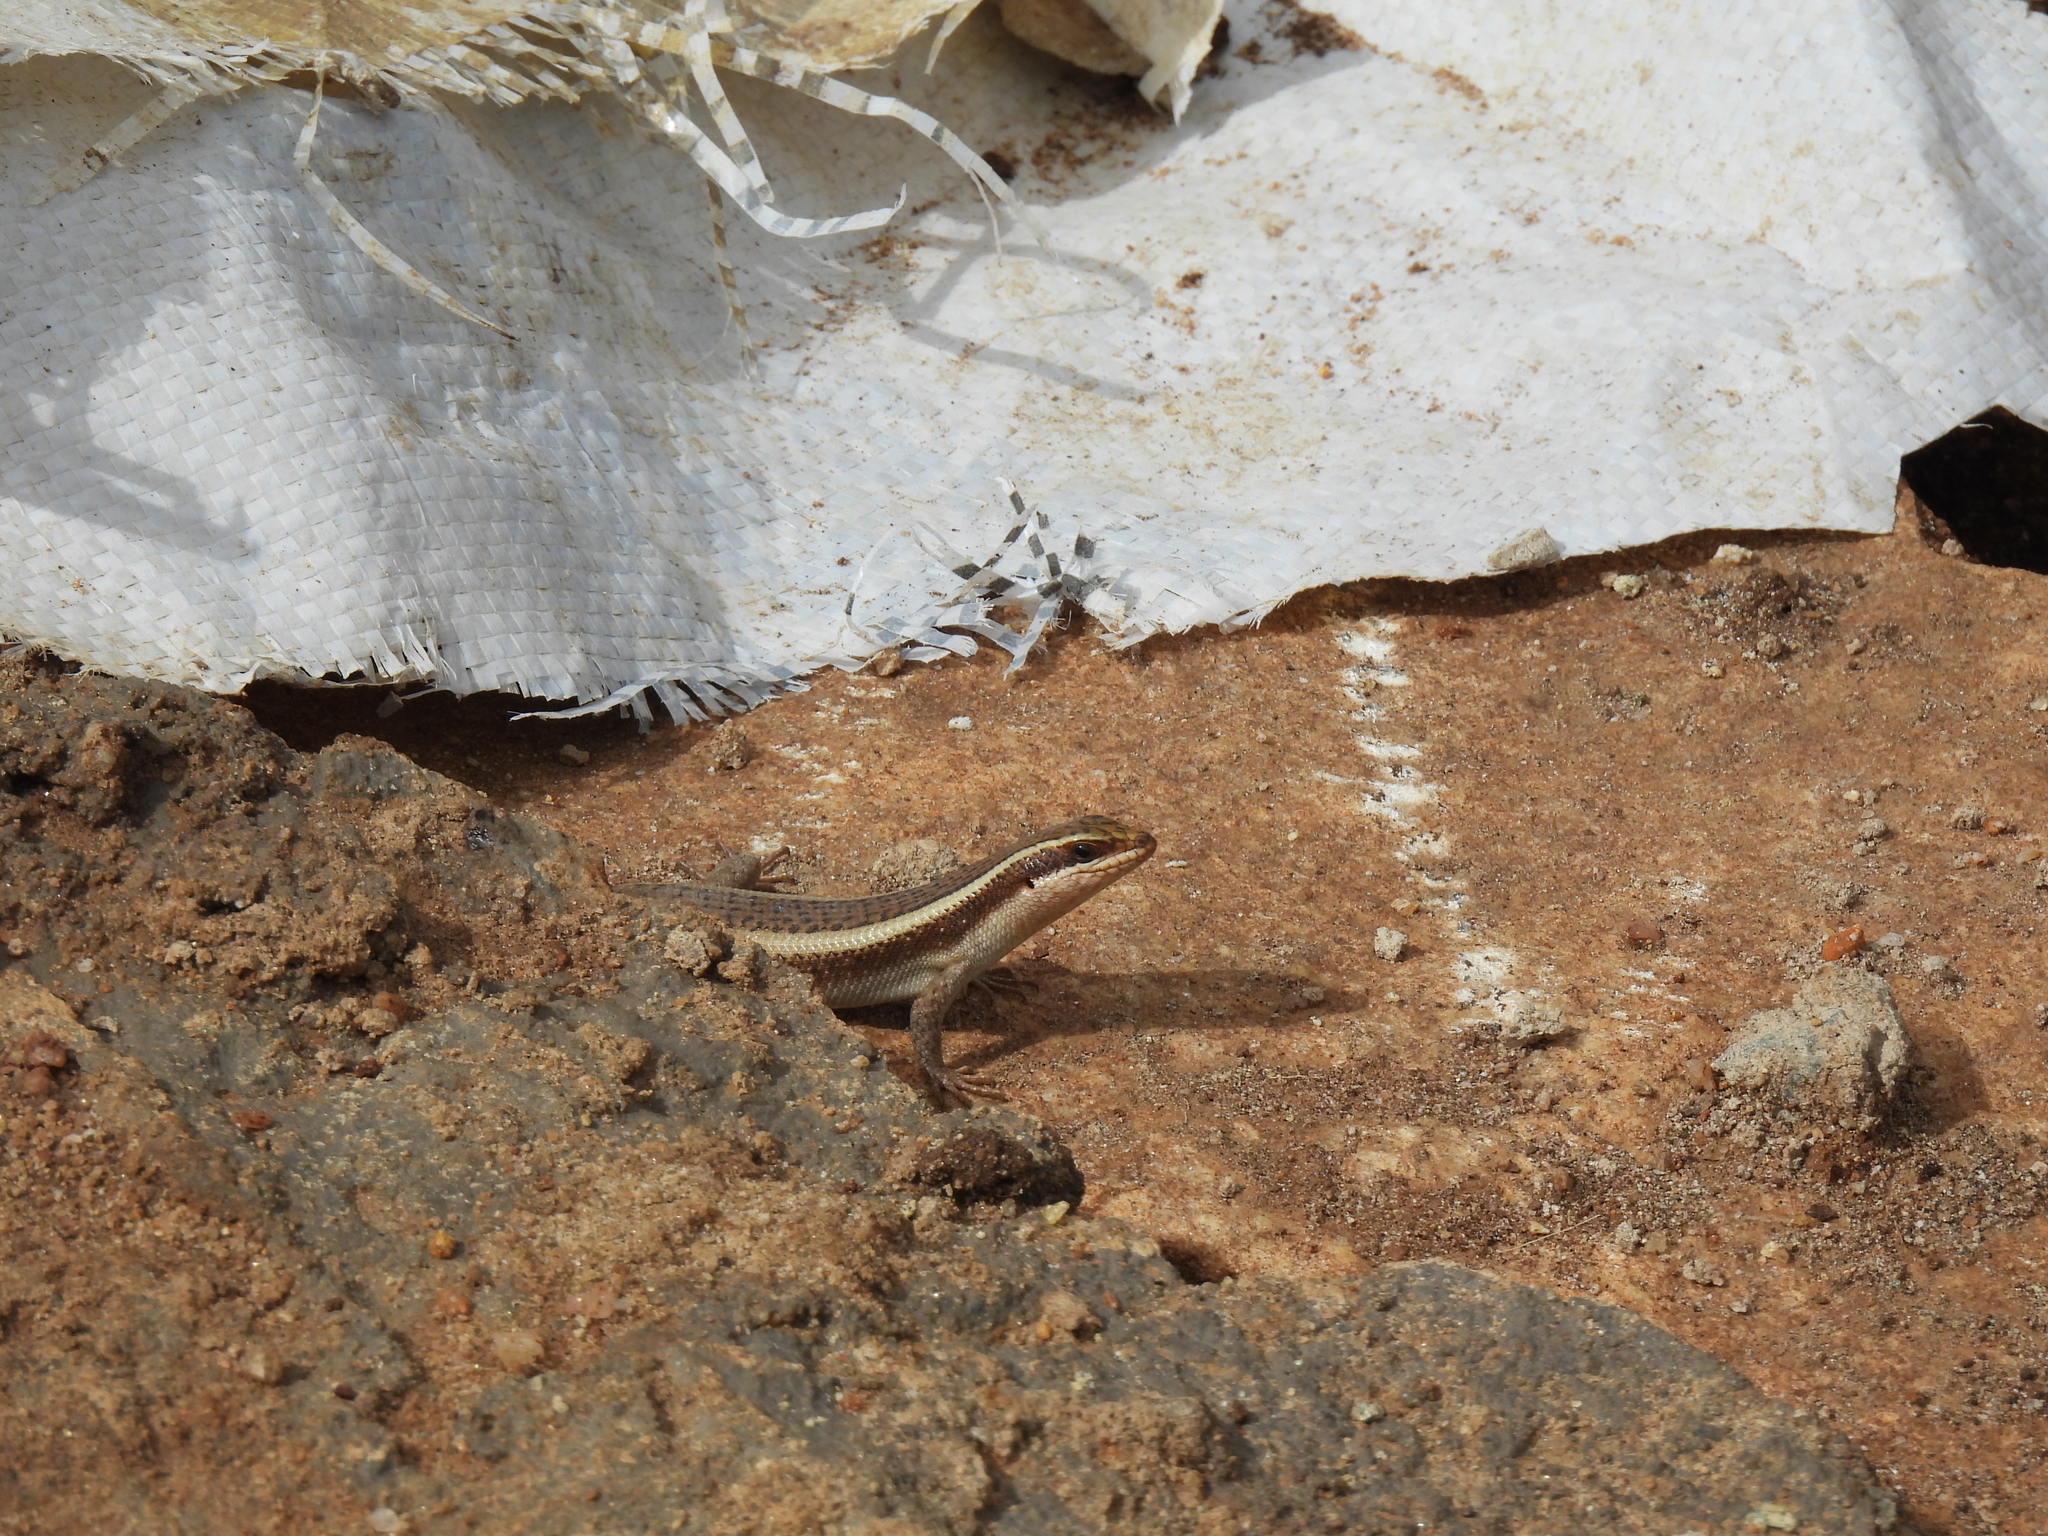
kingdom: Animalia
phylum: Chordata
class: Squamata
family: Scincidae
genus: Trachylepis
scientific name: Trachylepis striata
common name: African striped mabuya
